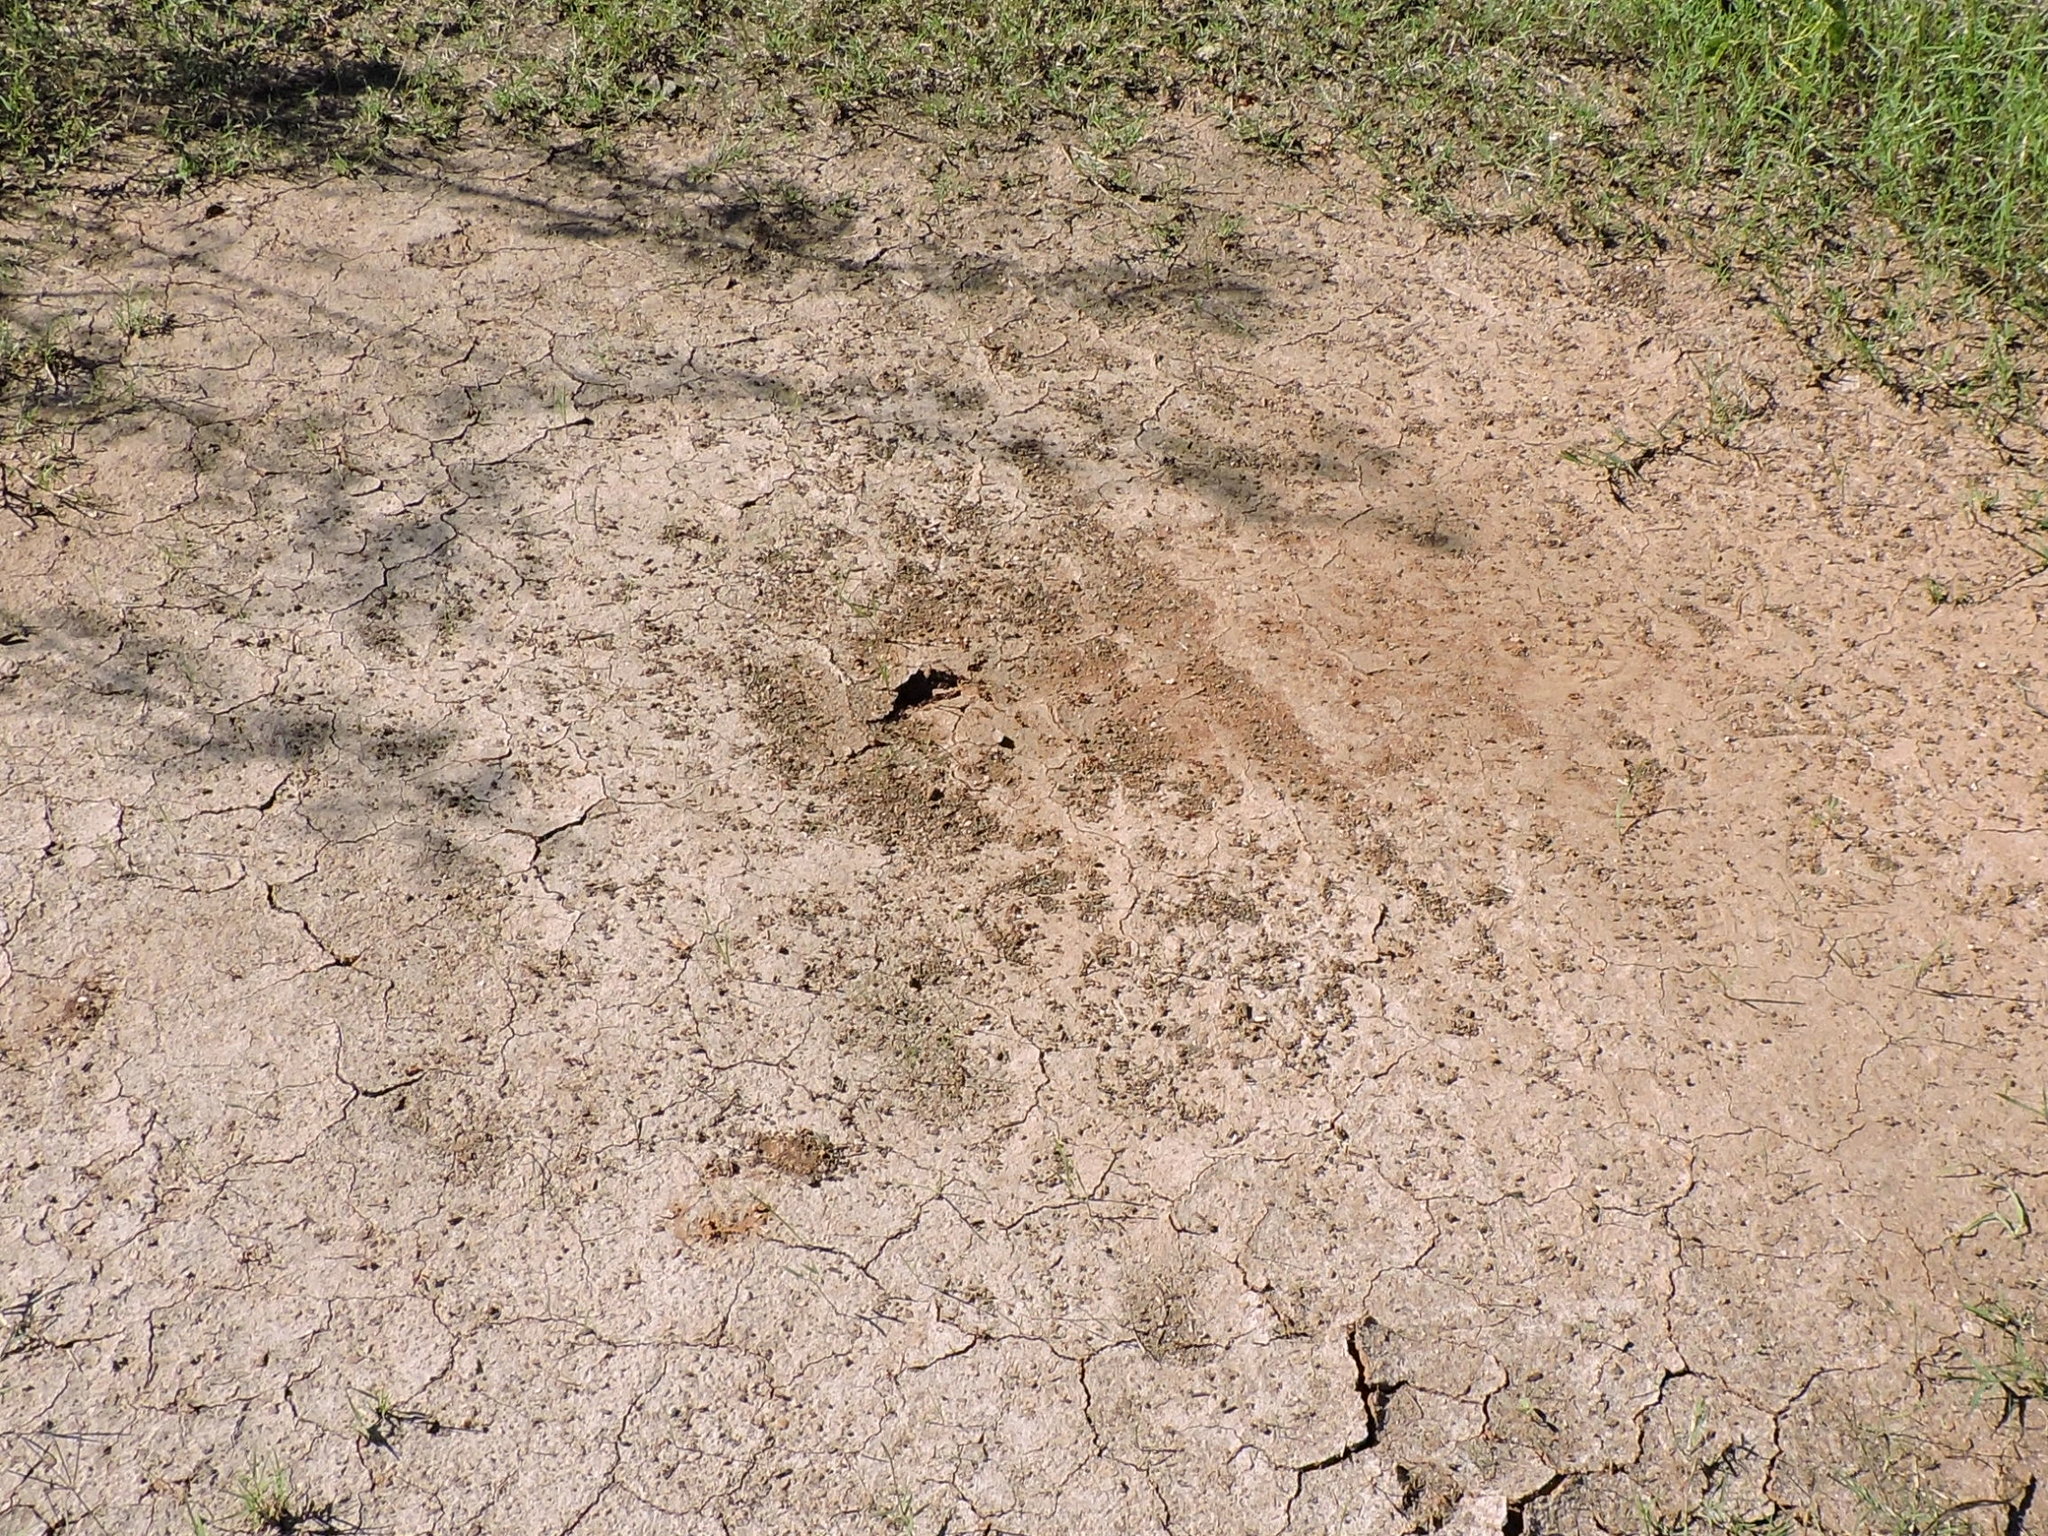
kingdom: Animalia
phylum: Arthropoda
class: Insecta
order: Hymenoptera
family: Formicidae
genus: Pogonomyrmex
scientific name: Pogonomyrmex barbatus
